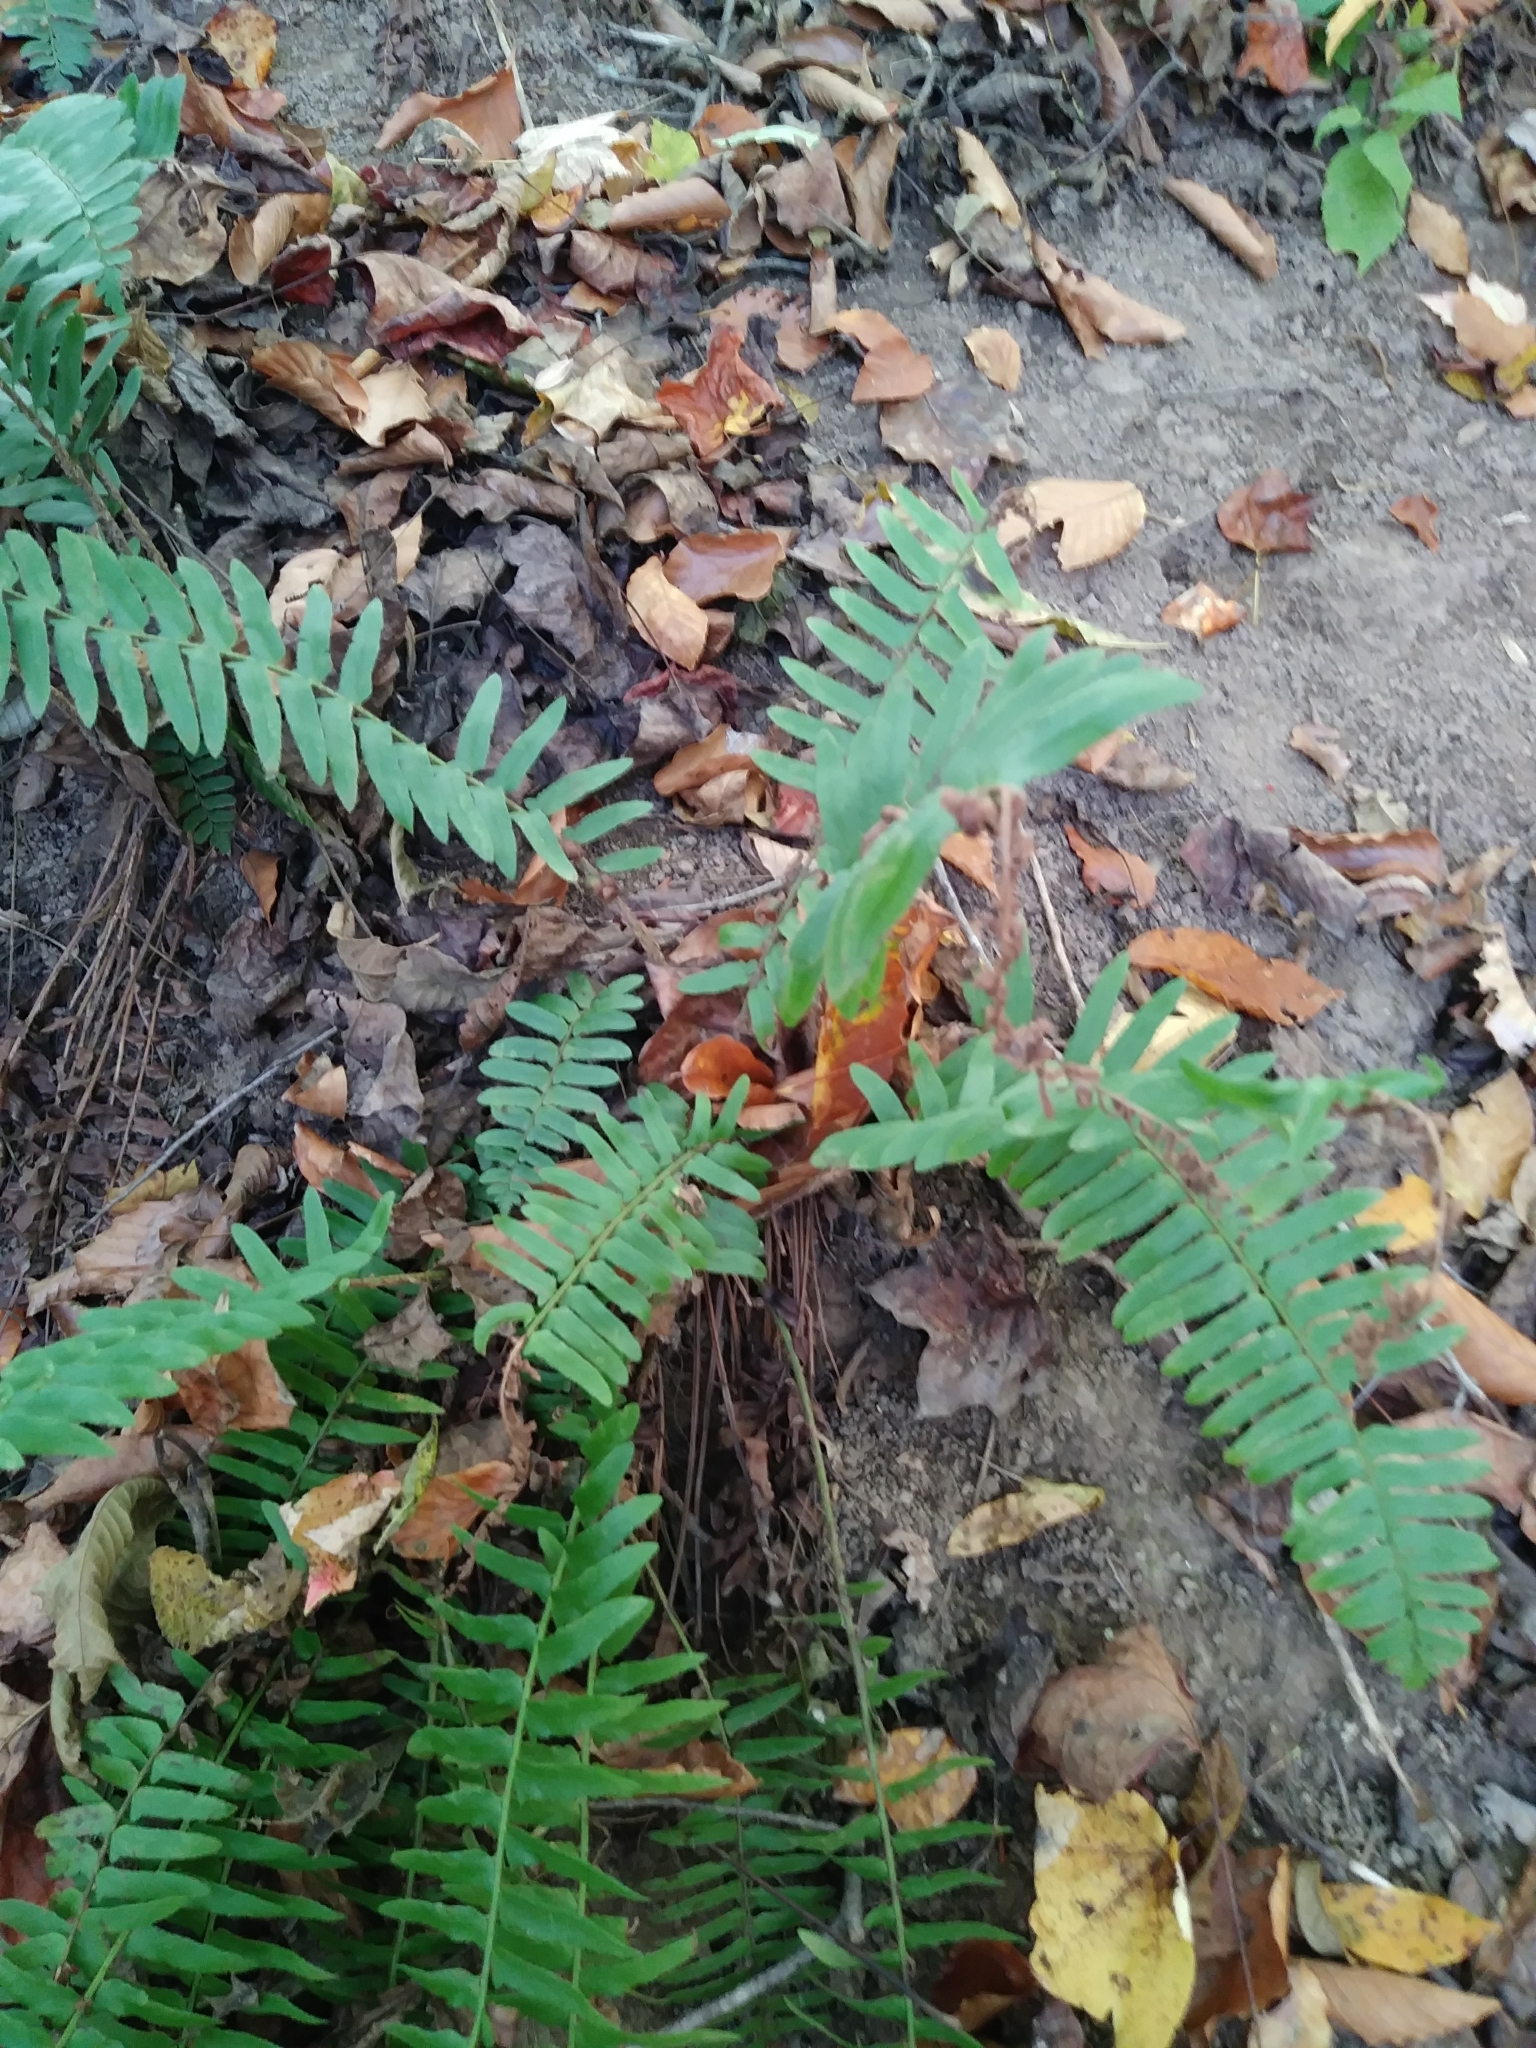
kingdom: Plantae
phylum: Tracheophyta
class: Polypodiopsida
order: Polypodiales
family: Dryopteridaceae
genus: Polystichum
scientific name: Polystichum acrostichoides
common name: Christmas fern
